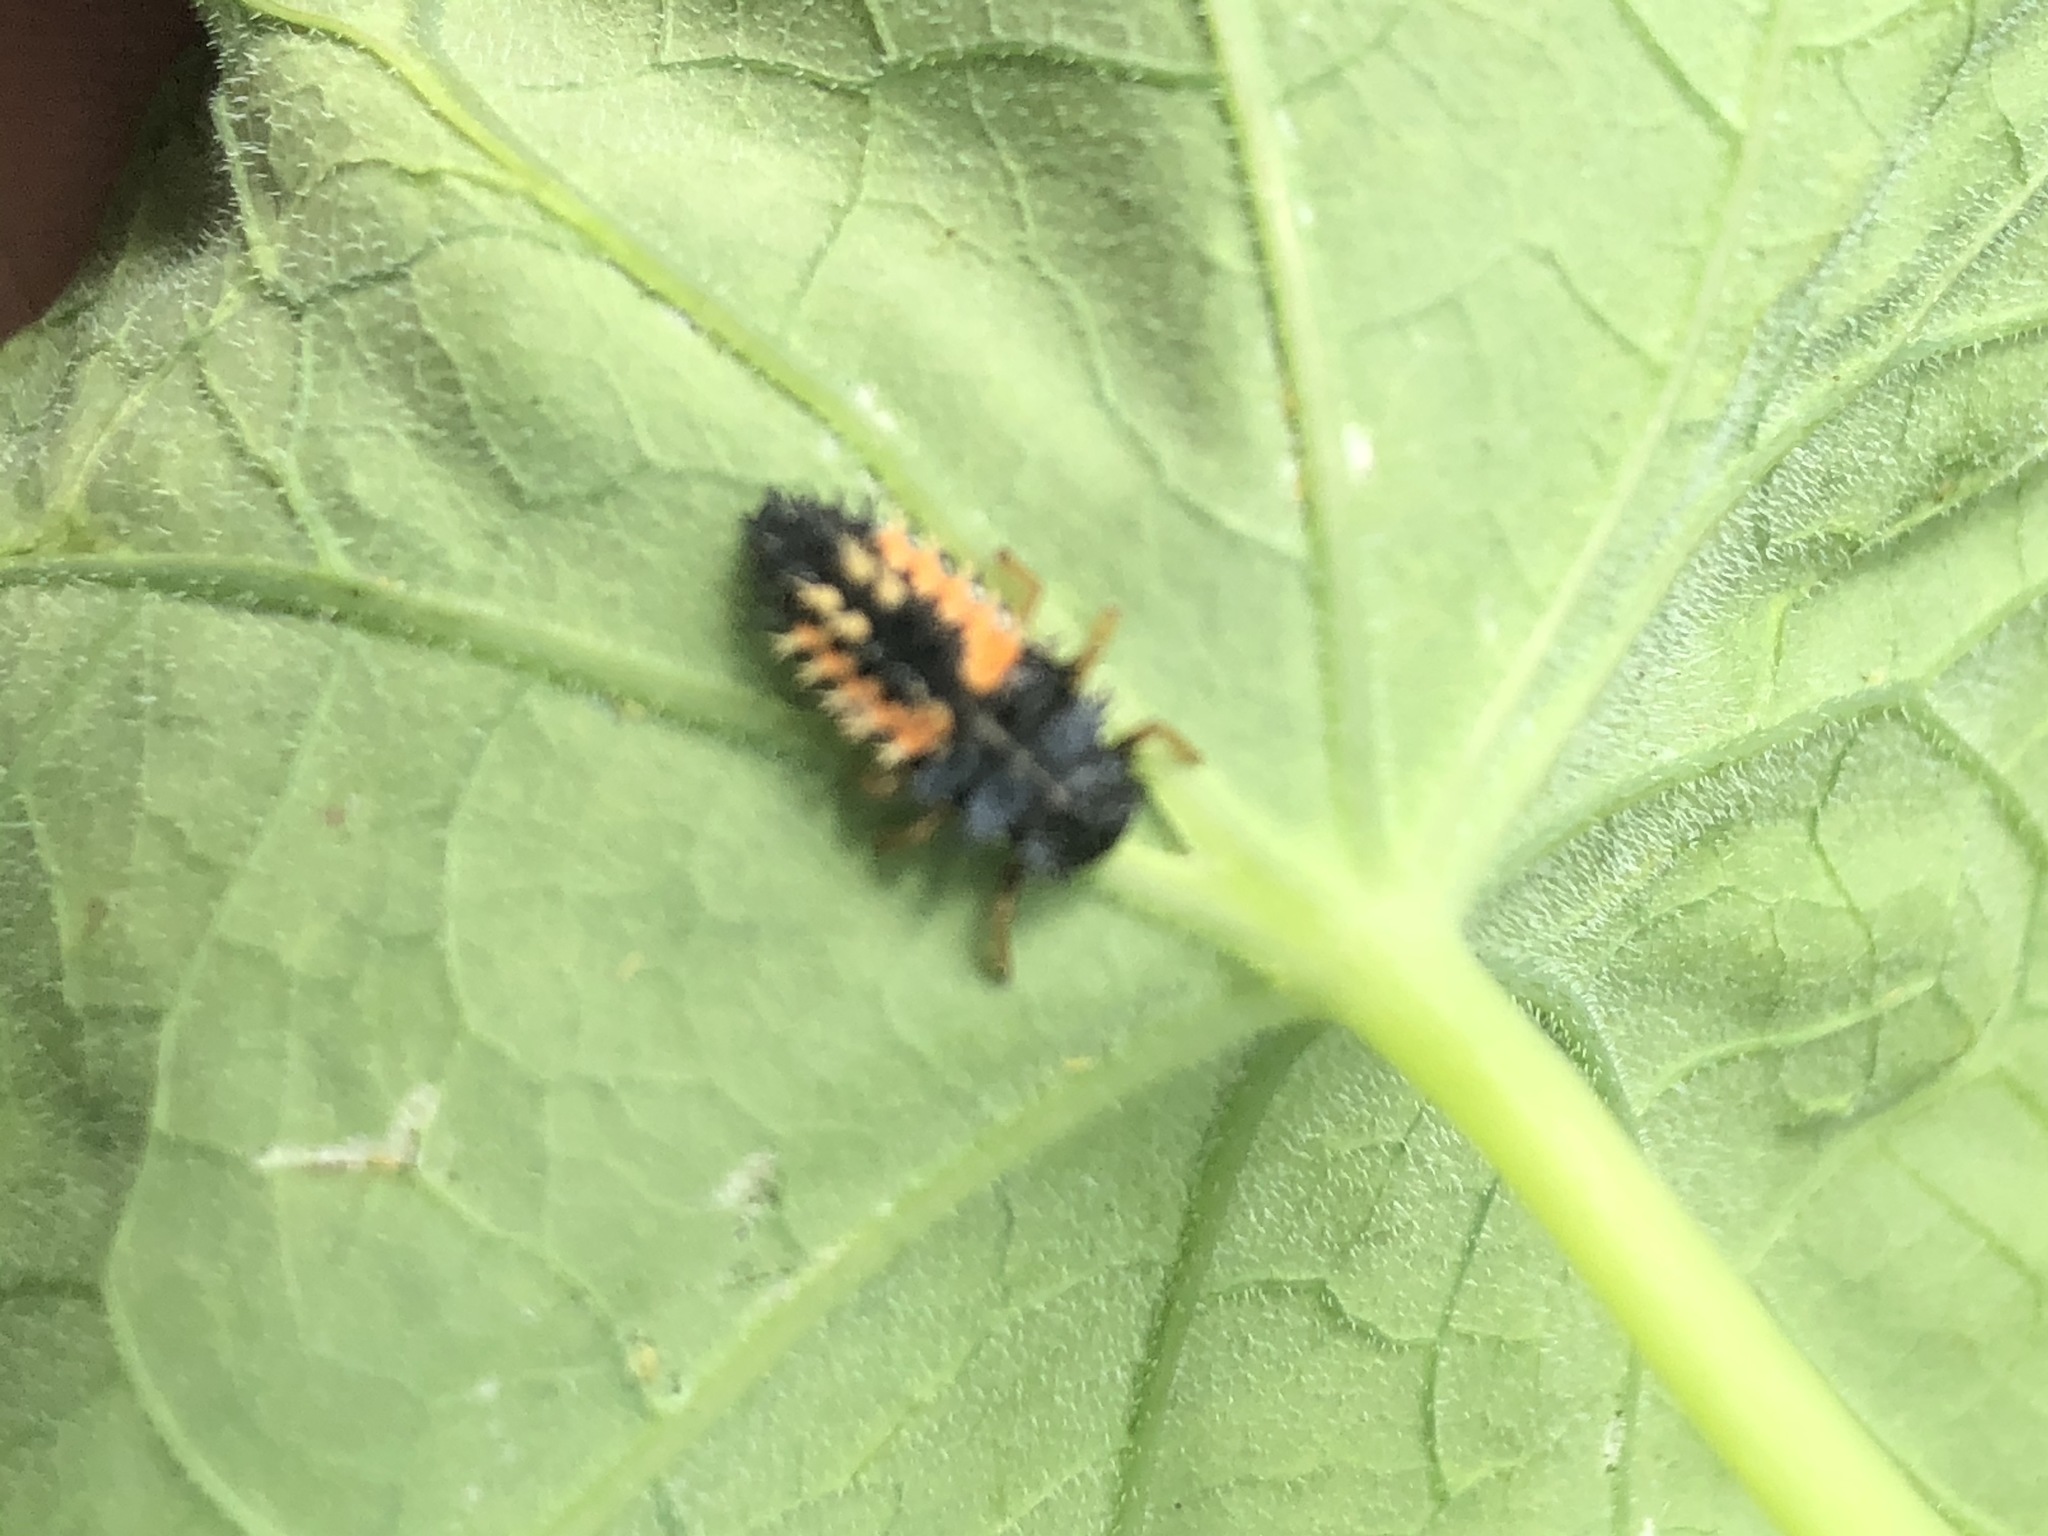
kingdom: Animalia
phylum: Arthropoda
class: Insecta
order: Coleoptera
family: Coccinellidae
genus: Harmonia
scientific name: Harmonia axyridis
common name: Harlequin ladybird
